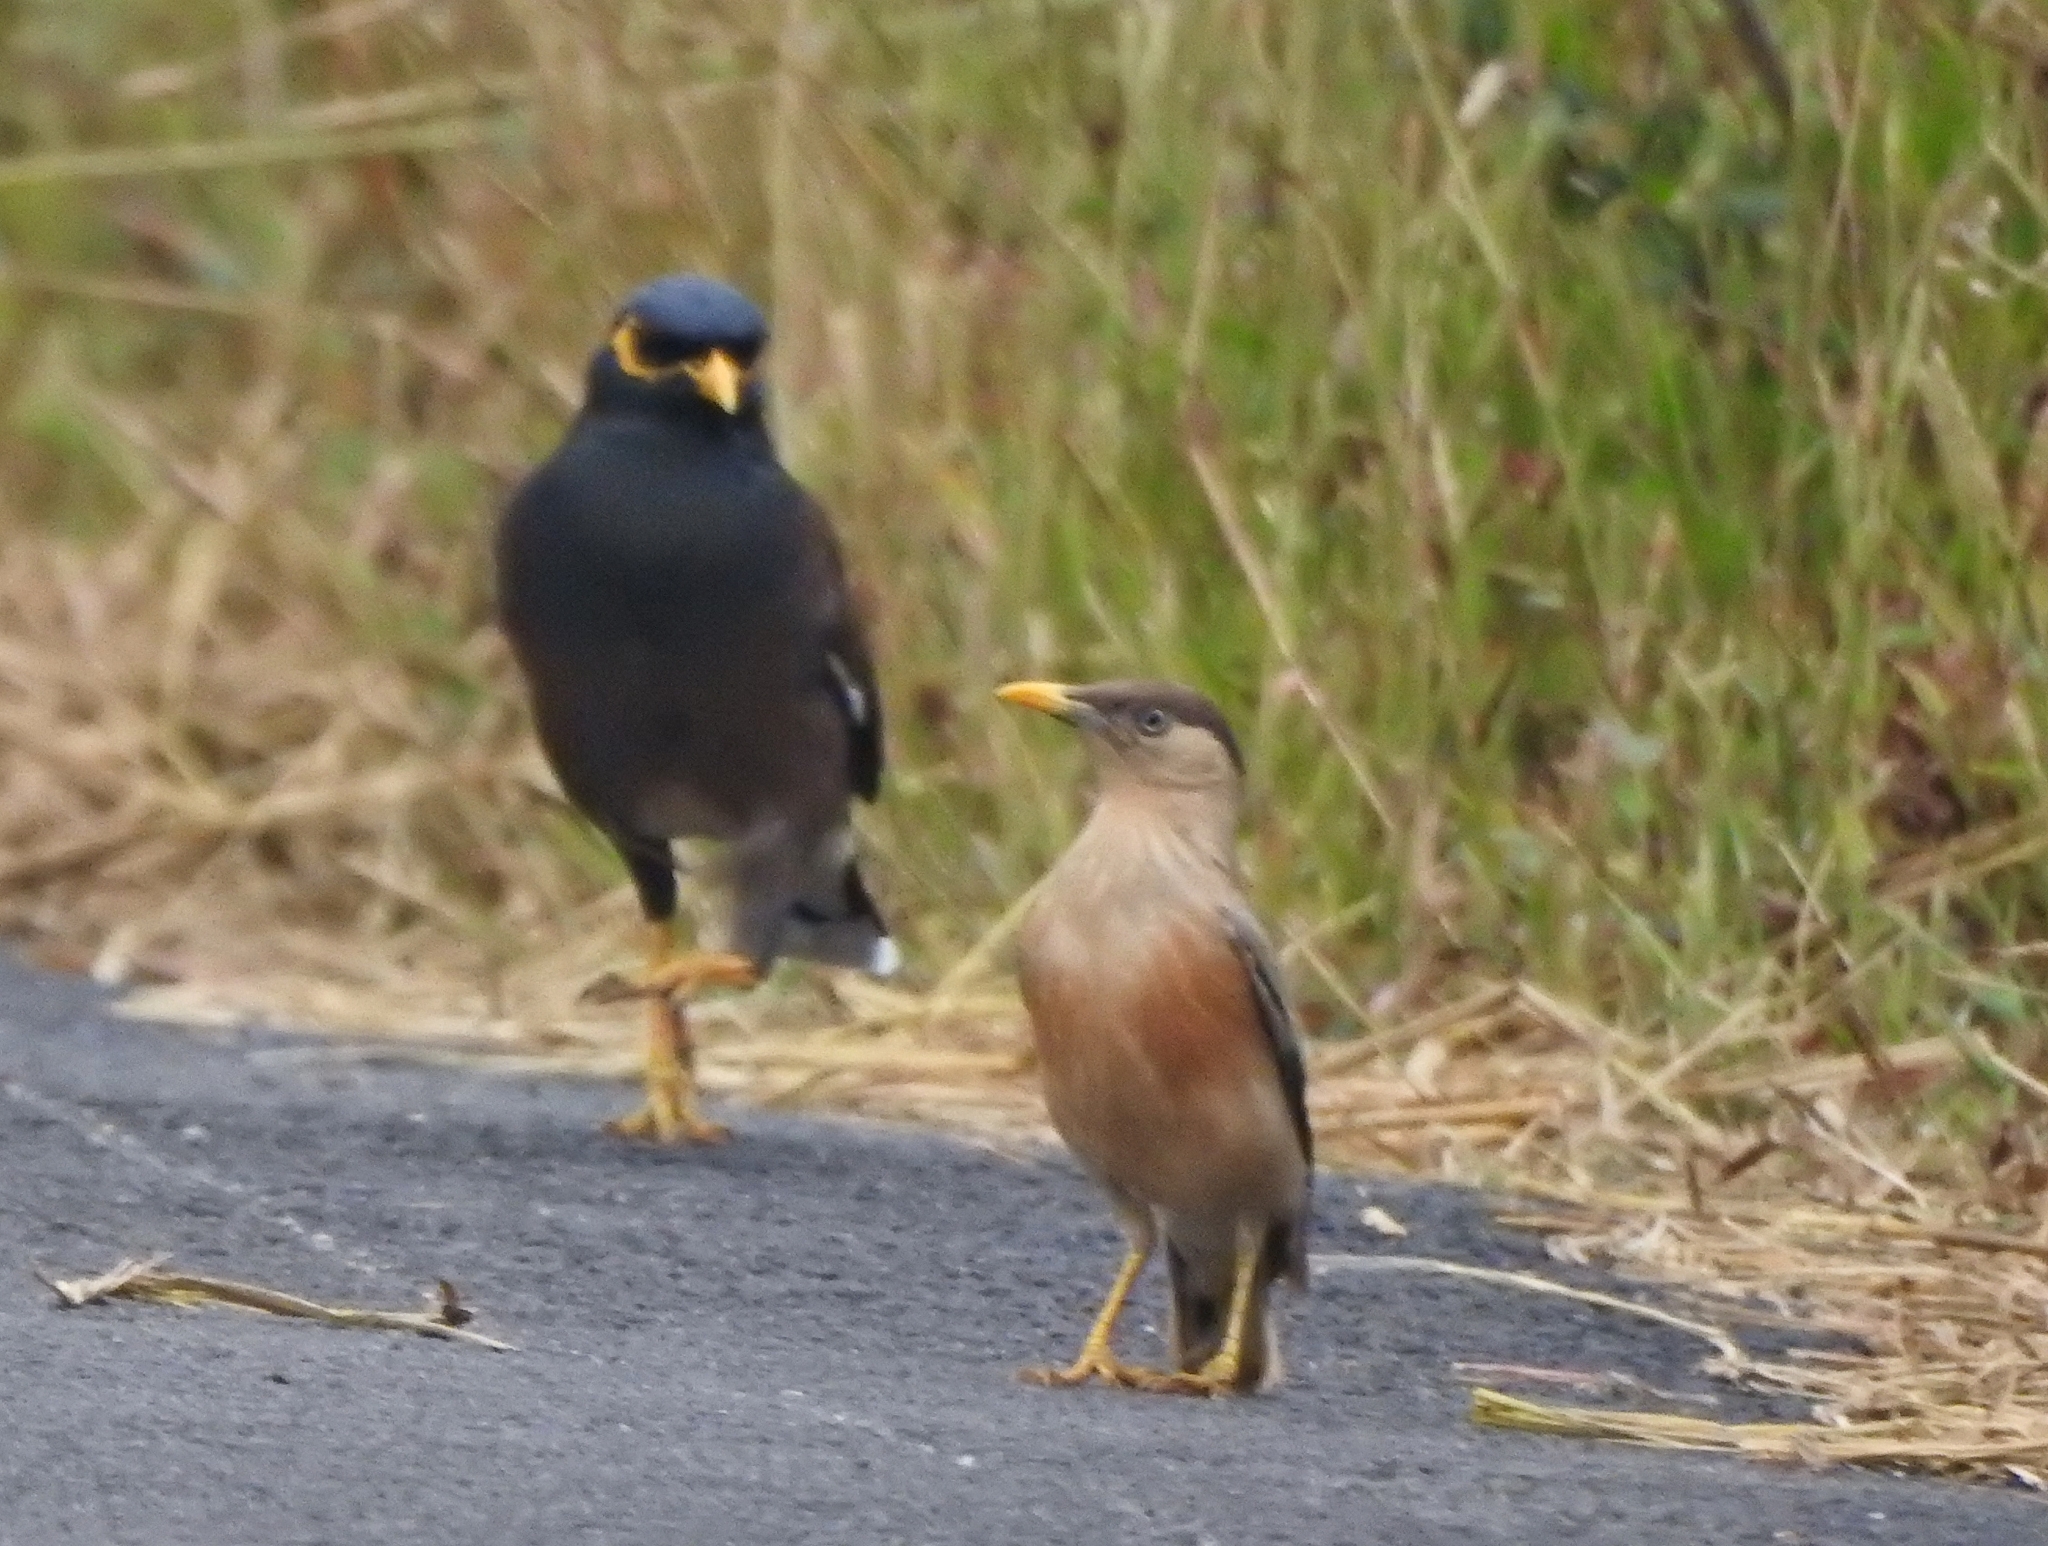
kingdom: Animalia
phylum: Chordata
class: Aves
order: Passeriformes
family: Sturnidae
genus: Sturnia
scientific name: Sturnia pagodarum
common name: Brahminy starling
